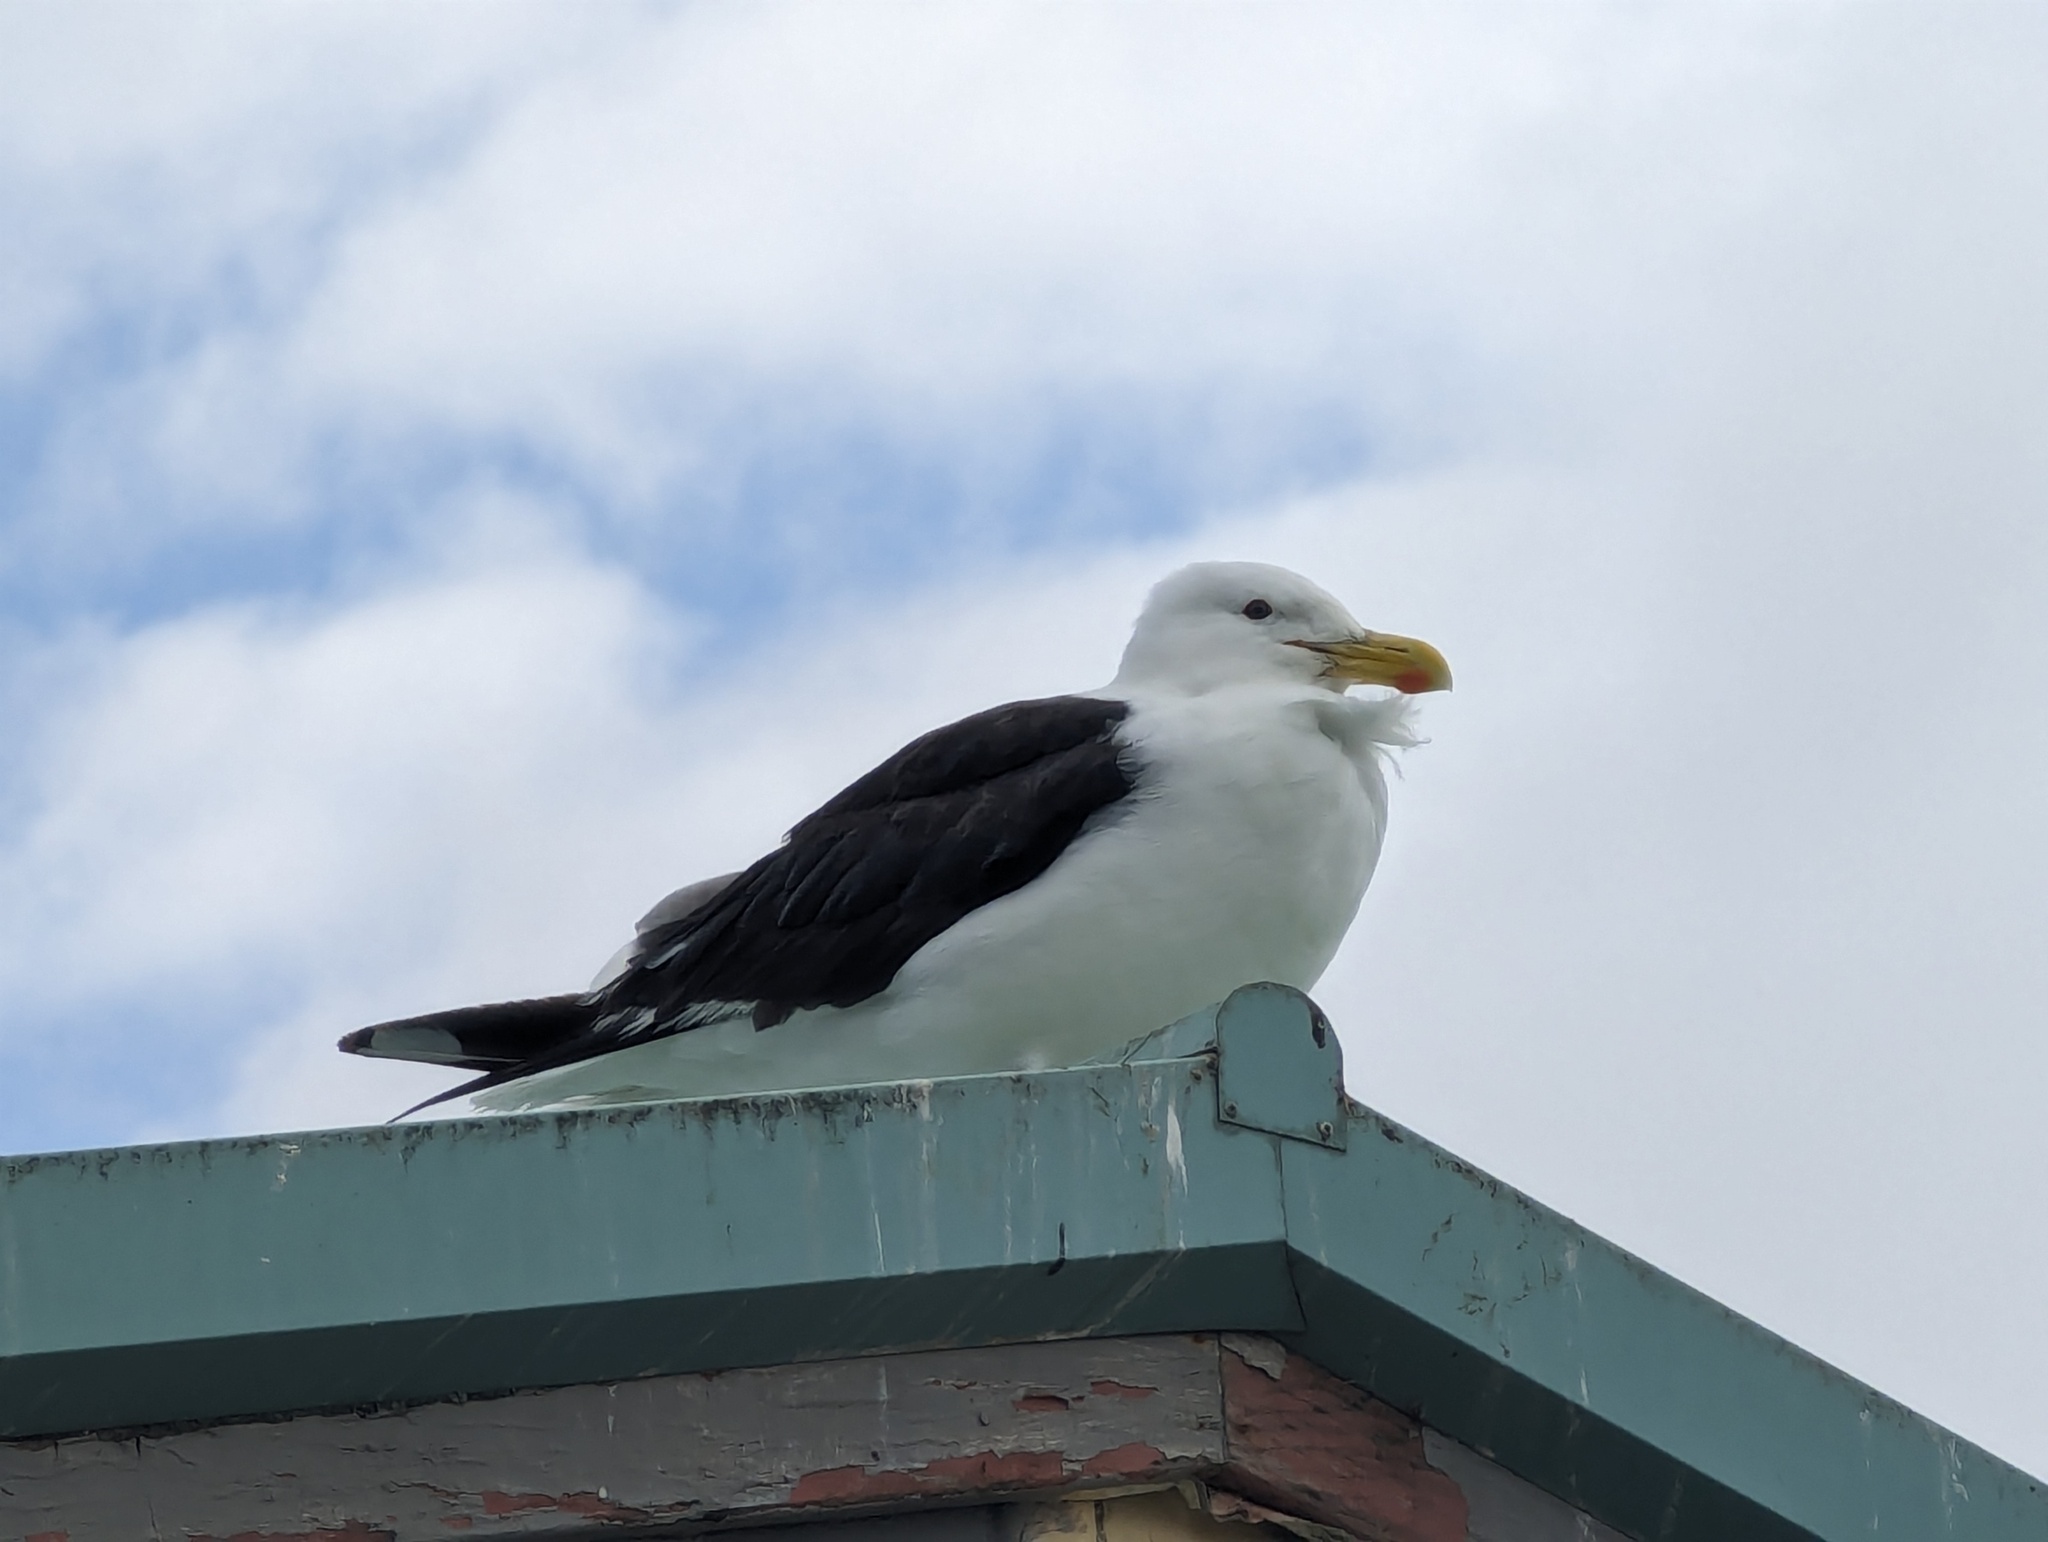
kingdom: Animalia
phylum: Chordata
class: Aves
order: Charadriiformes
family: Laridae
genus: Larus
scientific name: Larus dominicanus
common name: Kelp gull
